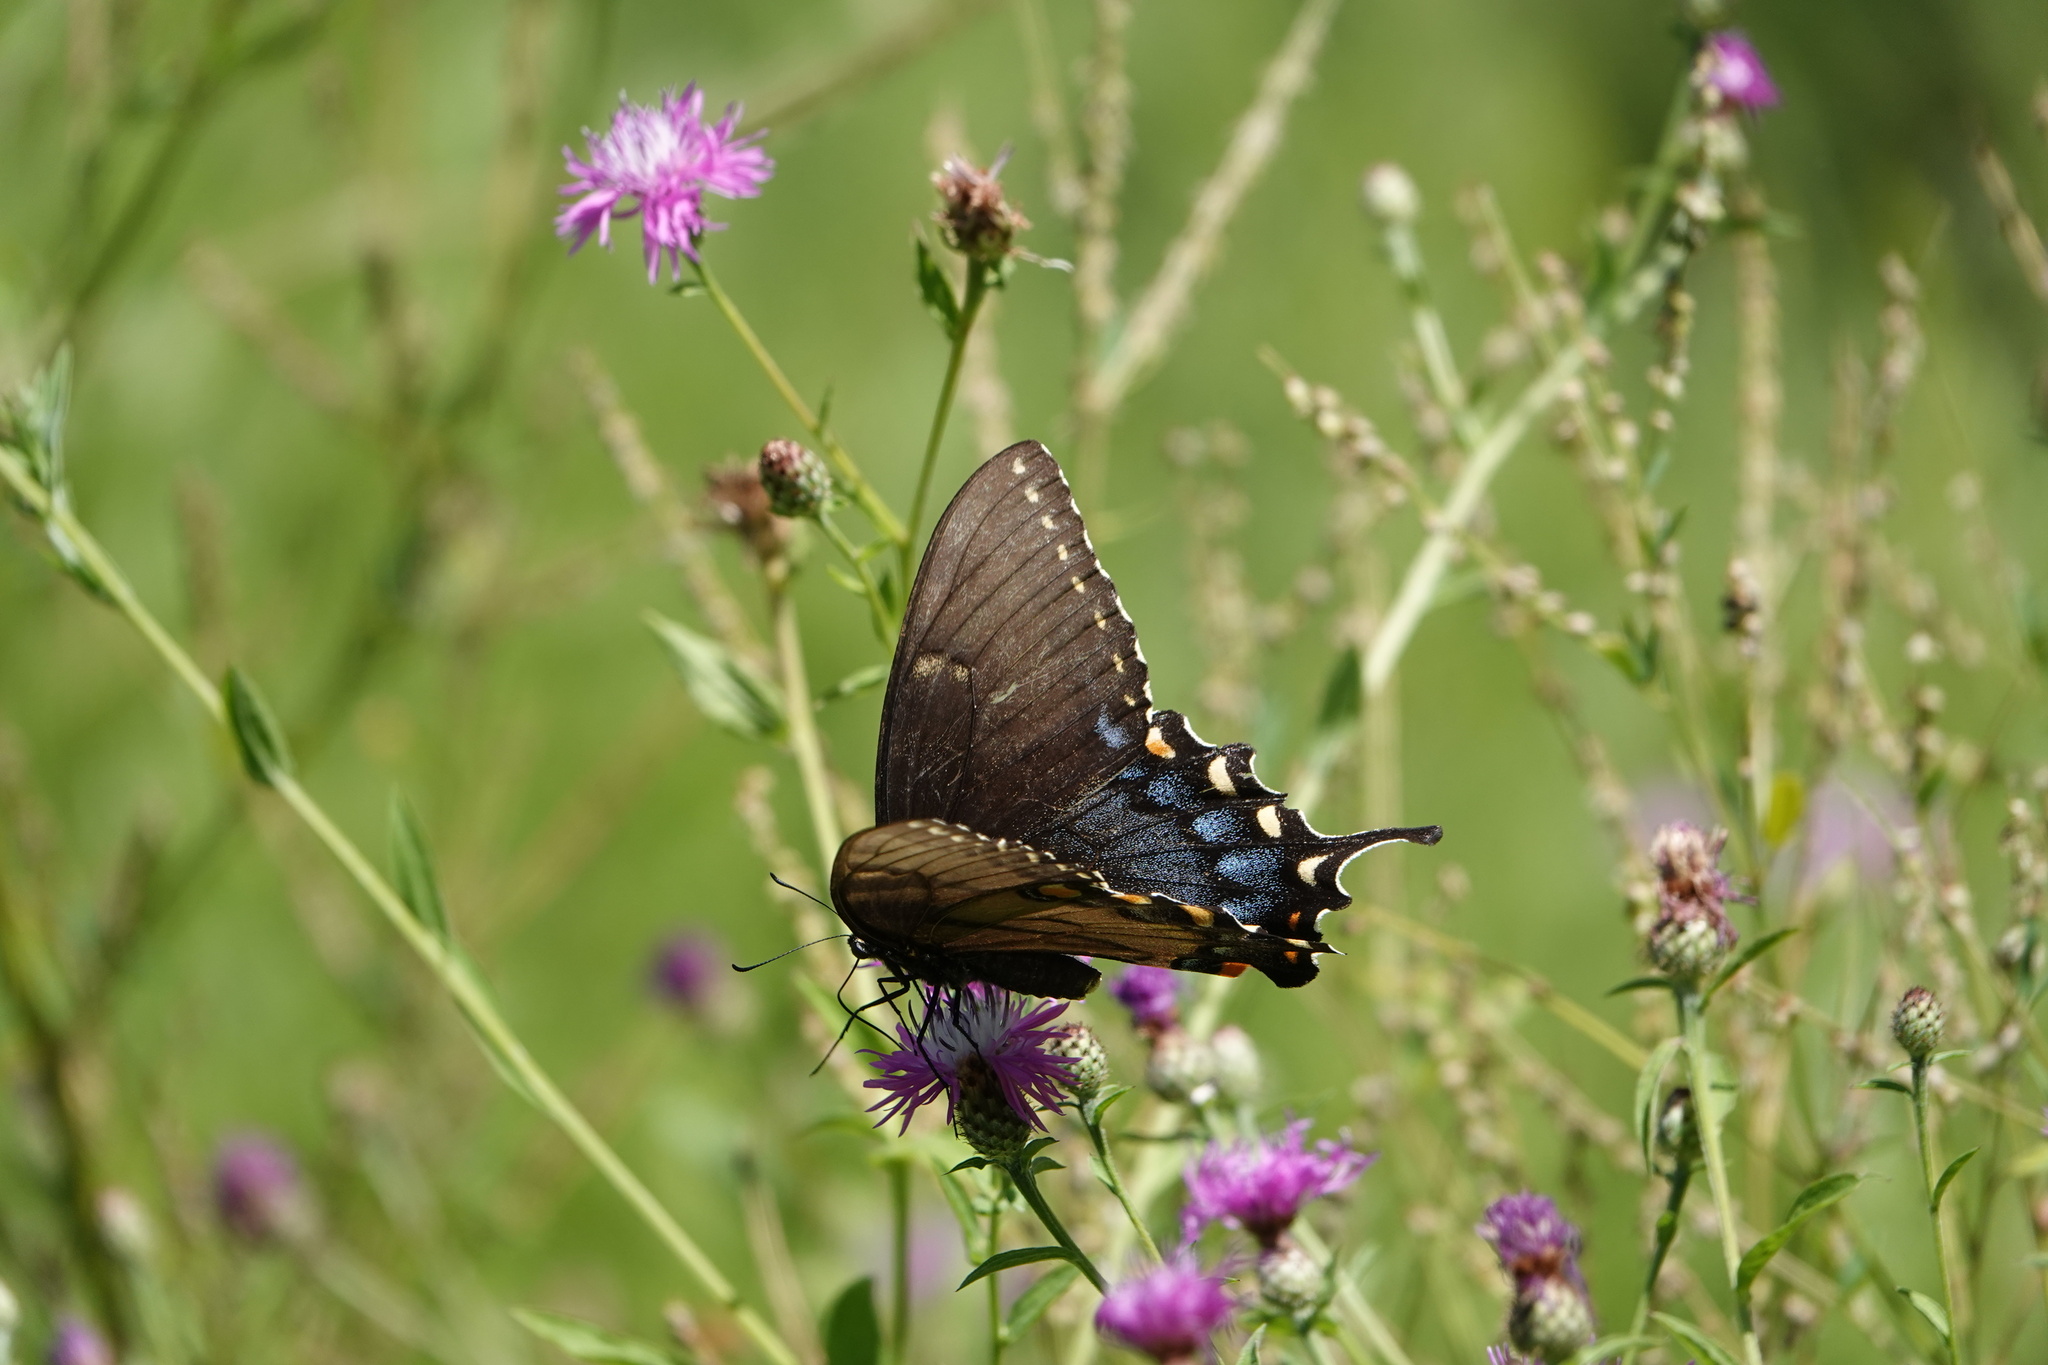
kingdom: Animalia
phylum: Arthropoda
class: Insecta
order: Lepidoptera
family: Papilionidae
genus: Papilio
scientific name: Papilio glaucus
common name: Tiger swallowtail
